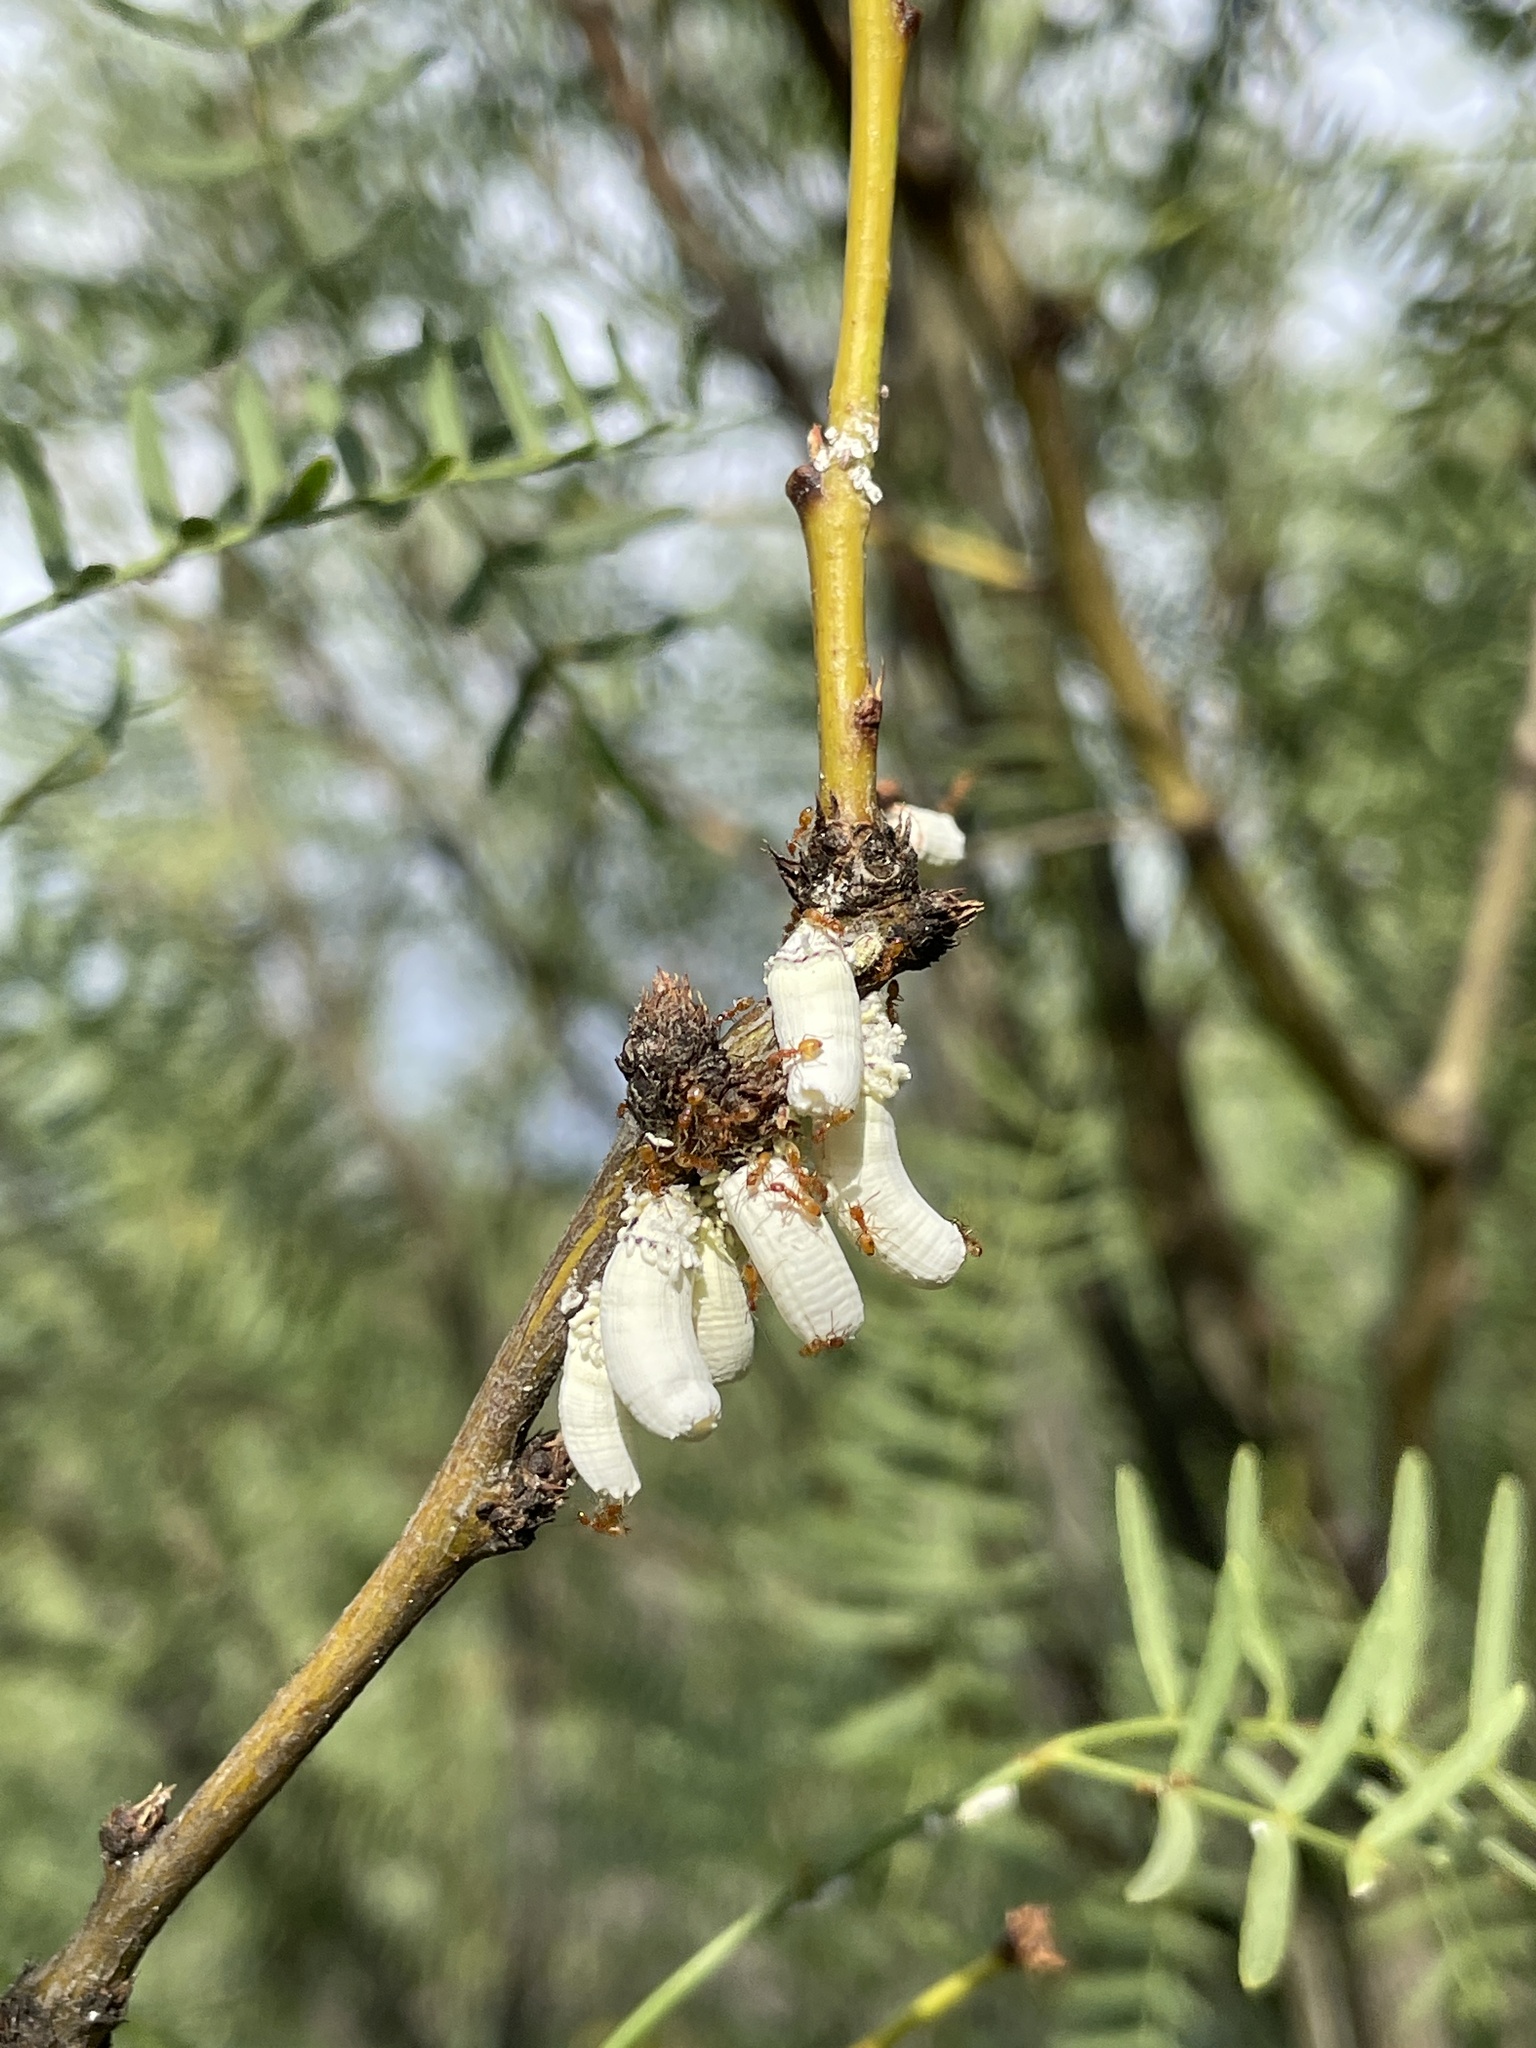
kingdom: Animalia
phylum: Arthropoda
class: Insecta
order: Hemiptera
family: Margarodidae
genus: Crypticerya
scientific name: Crypticerya rileyi
